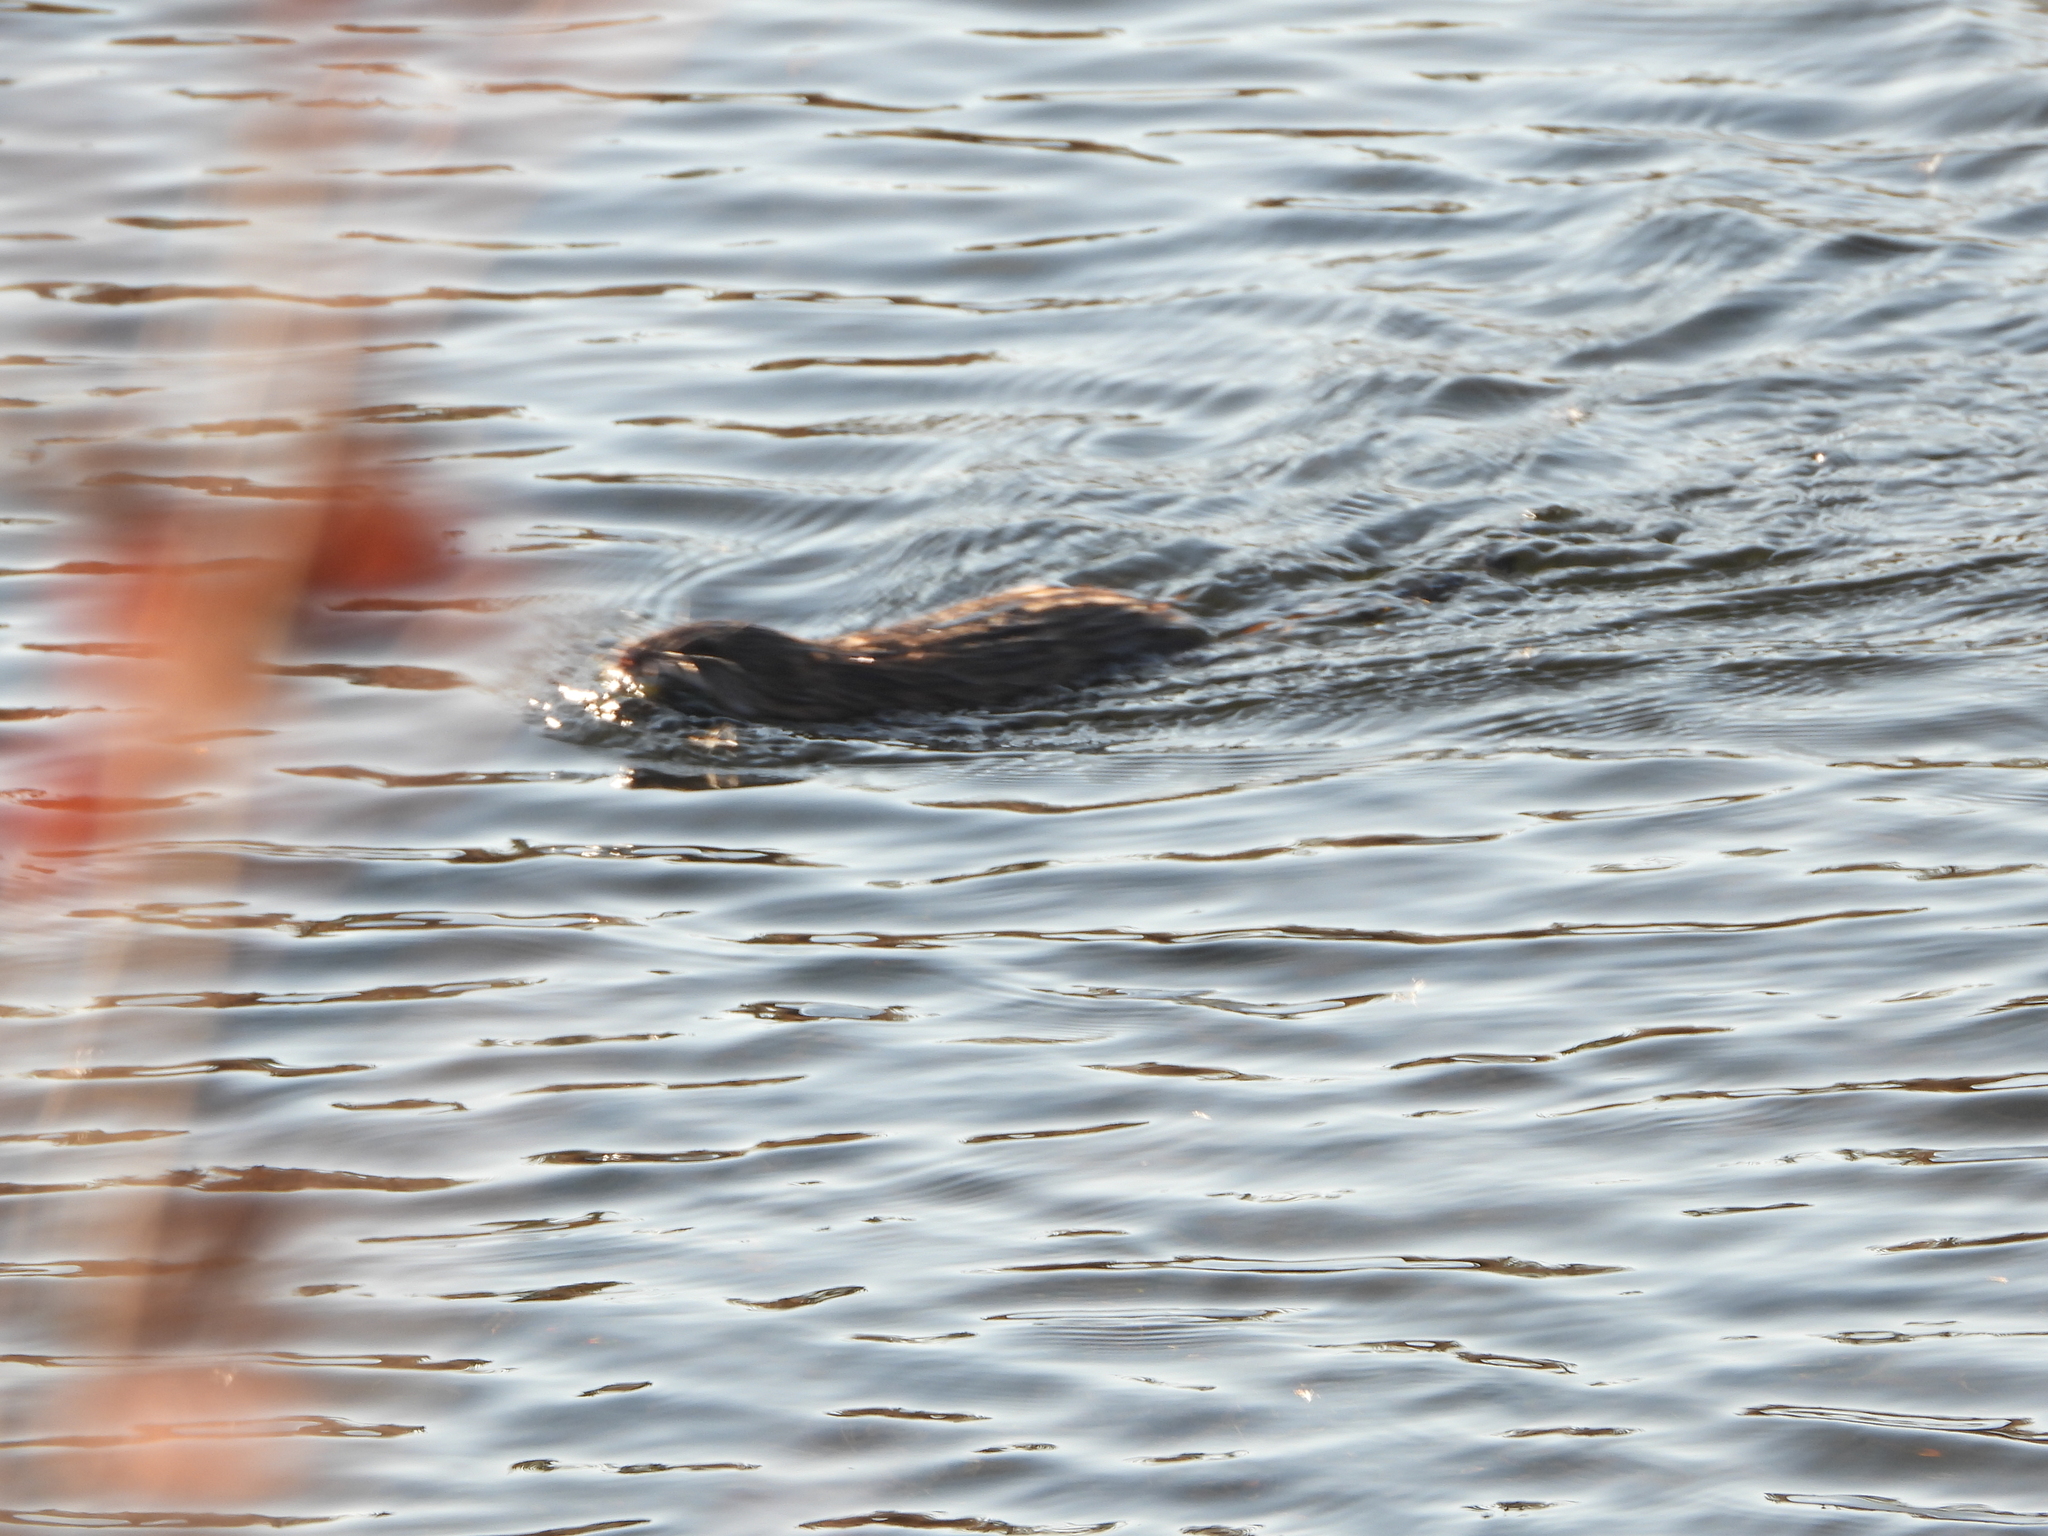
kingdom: Animalia
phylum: Chordata
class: Mammalia
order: Rodentia
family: Cricetidae
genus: Ondatra
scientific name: Ondatra zibethicus
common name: Muskrat
